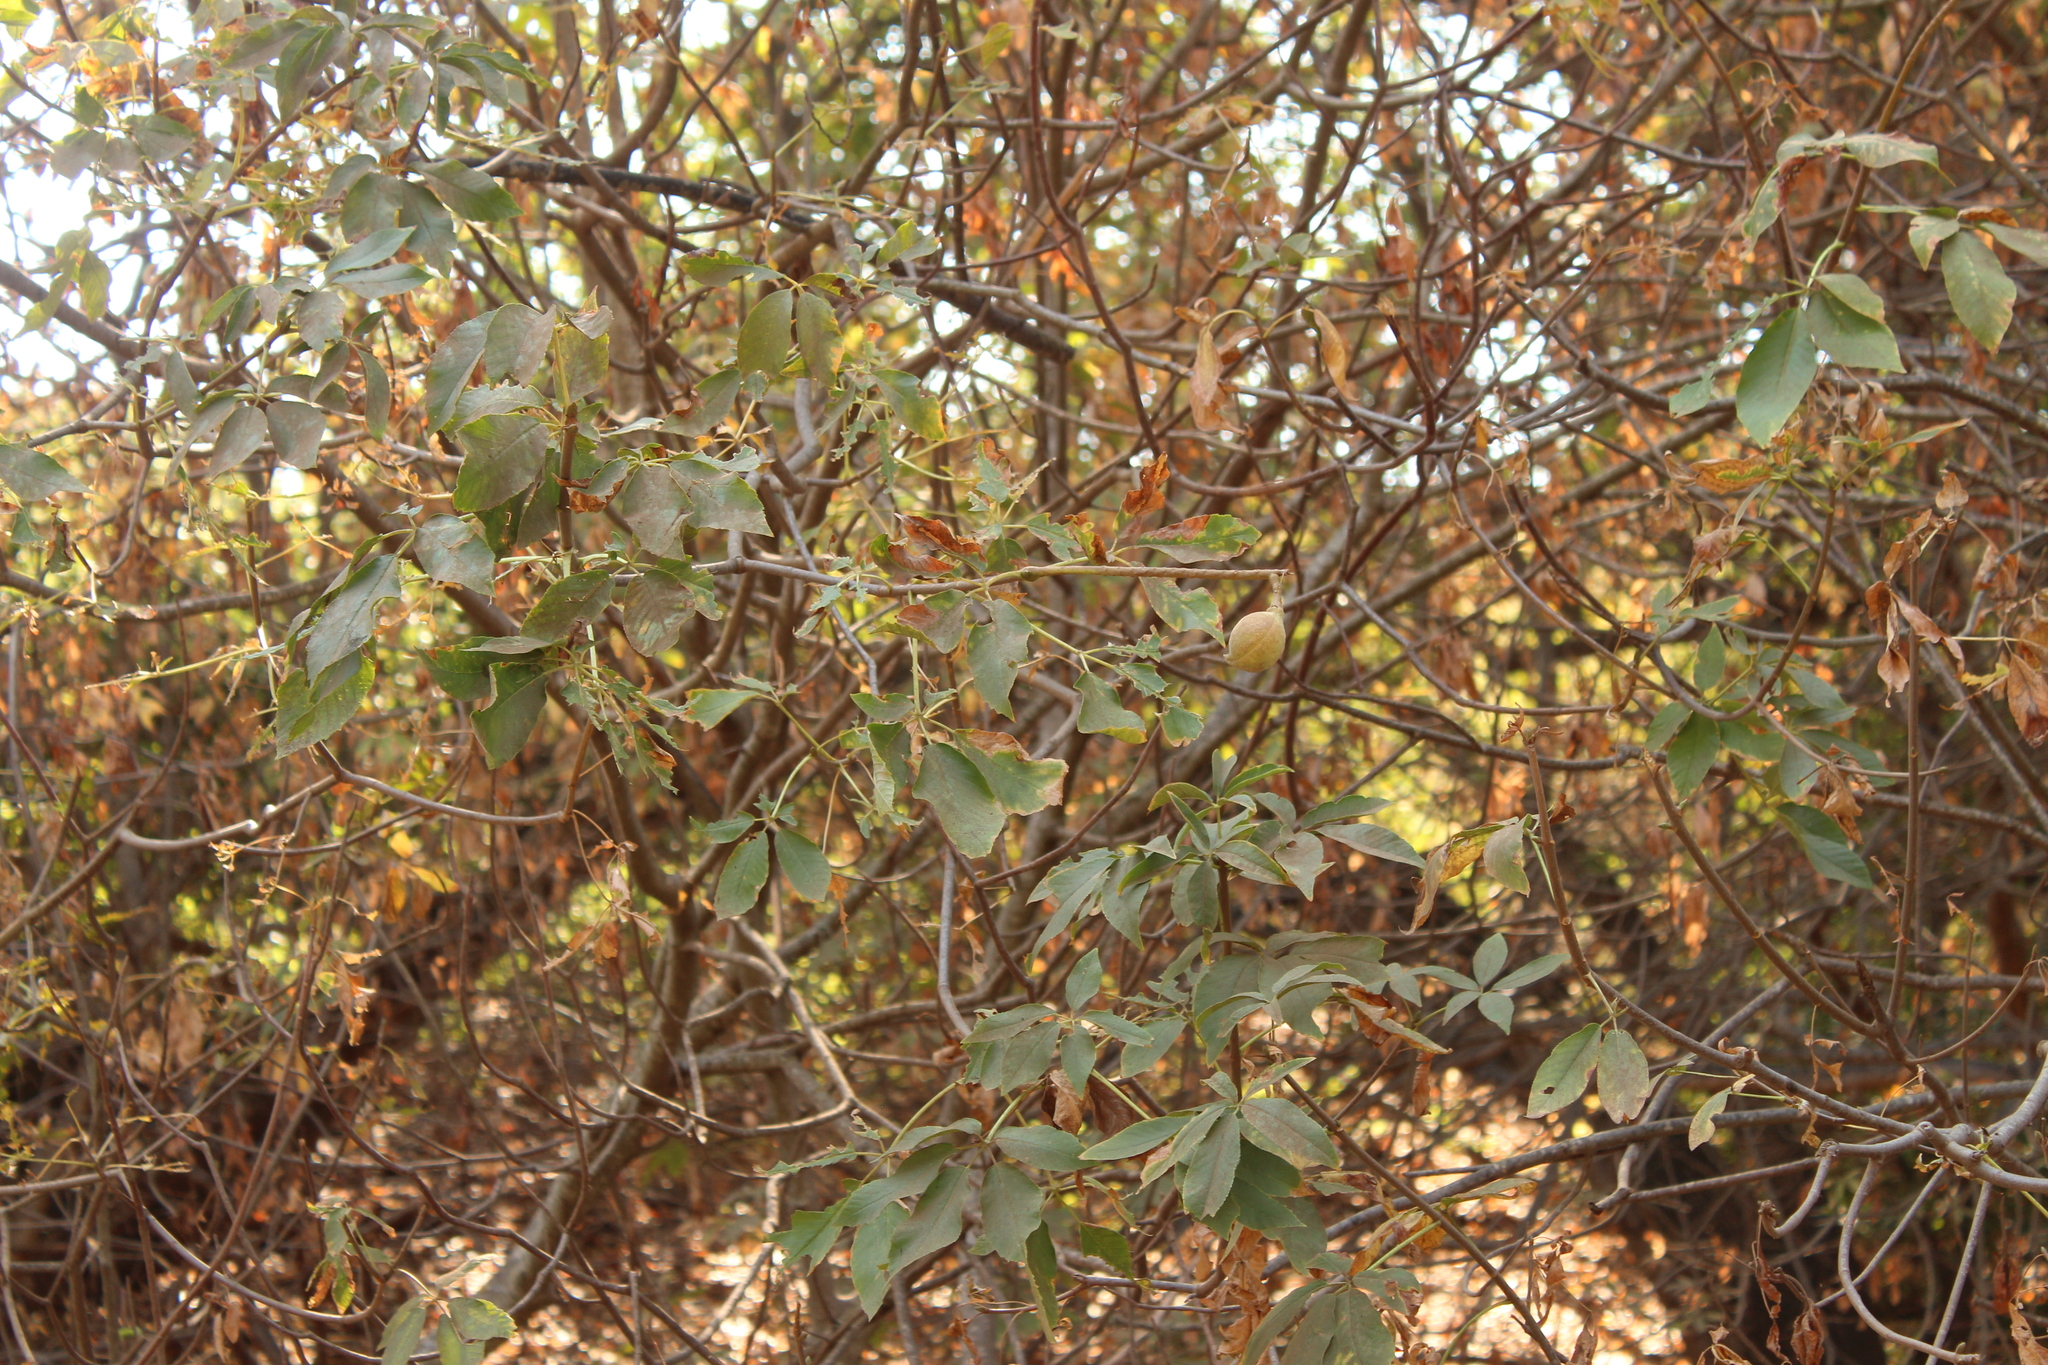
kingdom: Plantae
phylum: Tracheophyta
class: Magnoliopsida
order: Sapindales
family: Sapindaceae
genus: Aesculus
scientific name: Aesculus californica
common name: California buckeye
